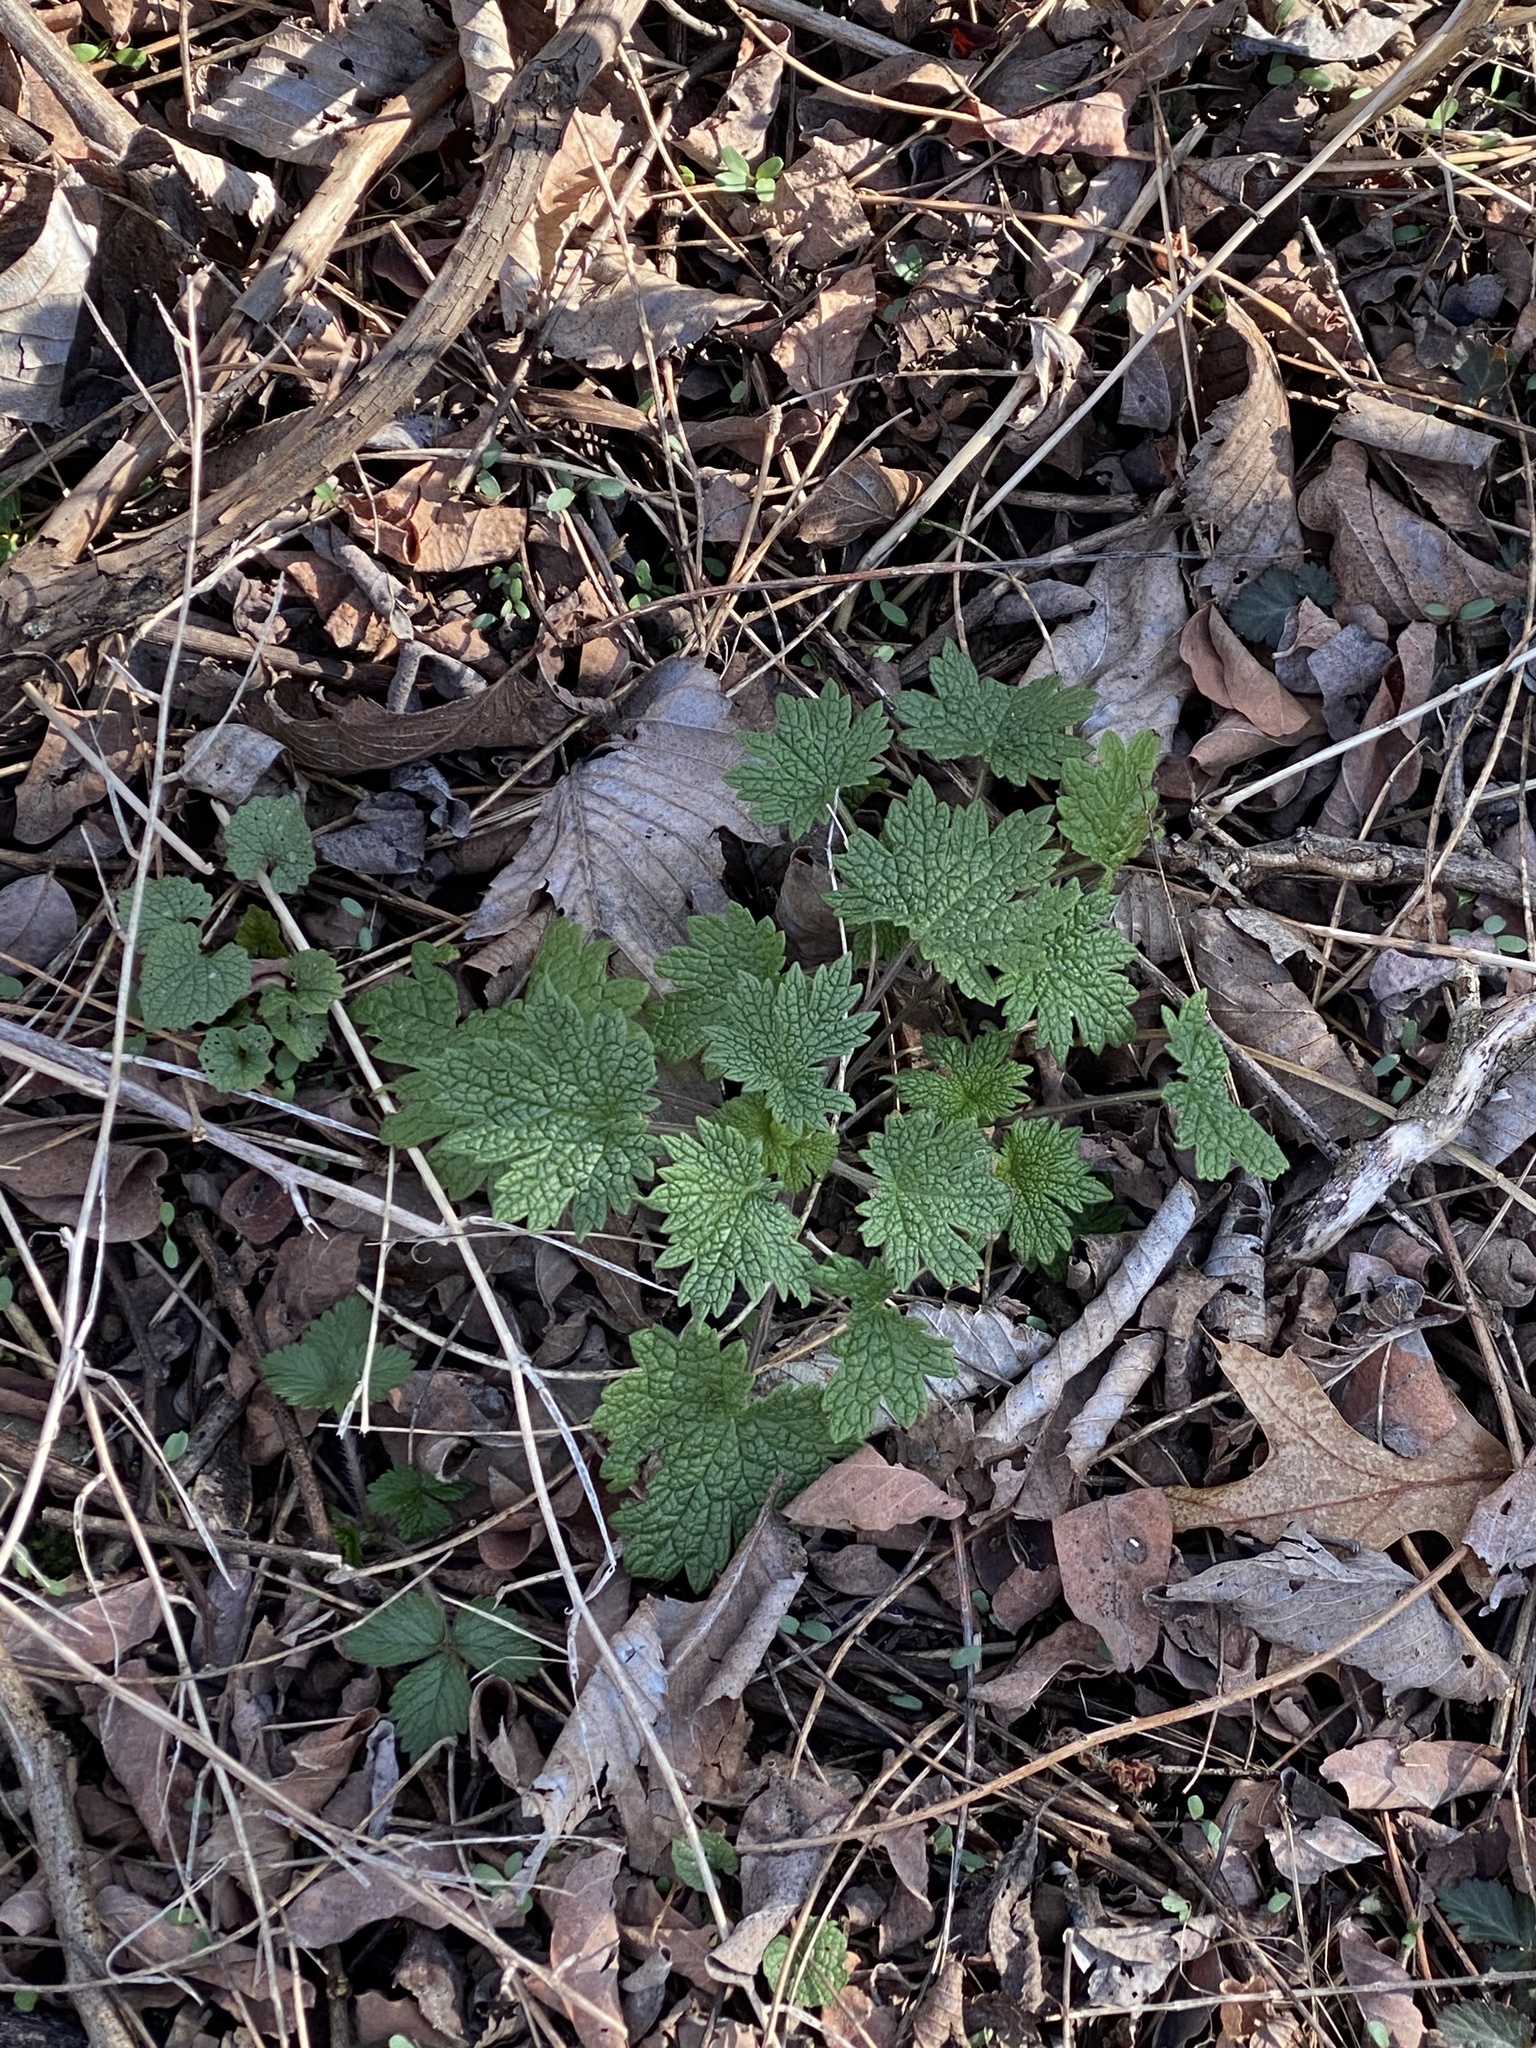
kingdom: Plantae
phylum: Tracheophyta
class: Magnoliopsida
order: Lamiales
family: Lamiaceae
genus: Leonurus
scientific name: Leonurus cardiaca
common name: Motherwort
